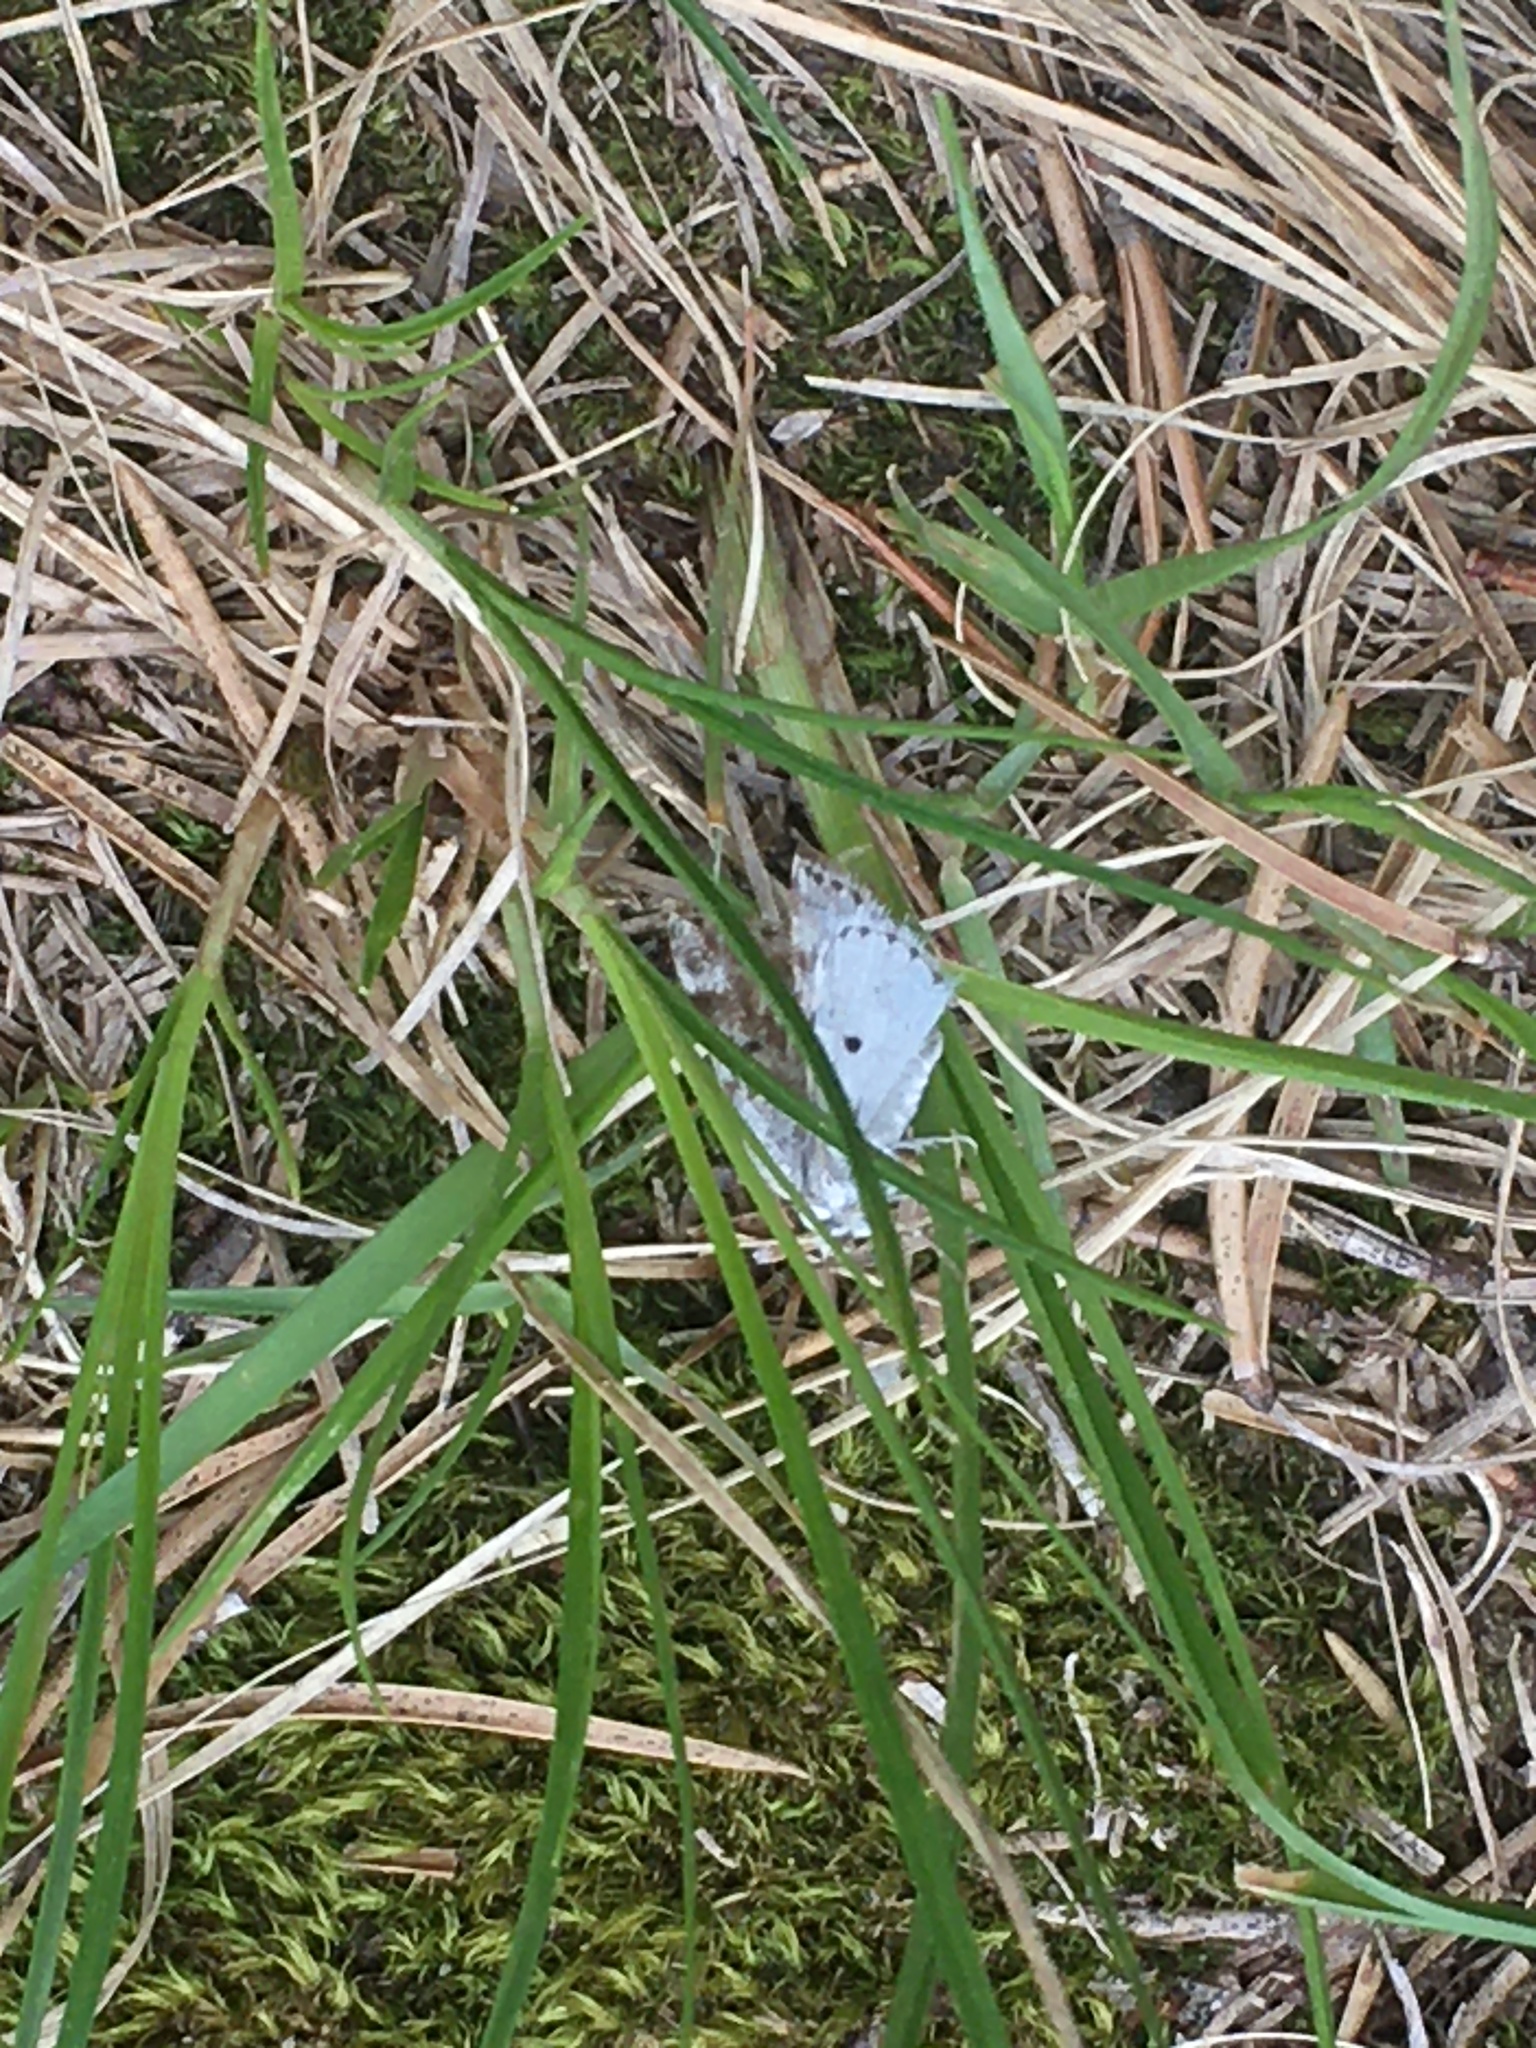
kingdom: Animalia
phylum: Arthropoda
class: Insecta
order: Lepidoptera
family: Geometridae
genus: Lomographa
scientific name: Lomographa semiclarata
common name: Bluish spring moth
